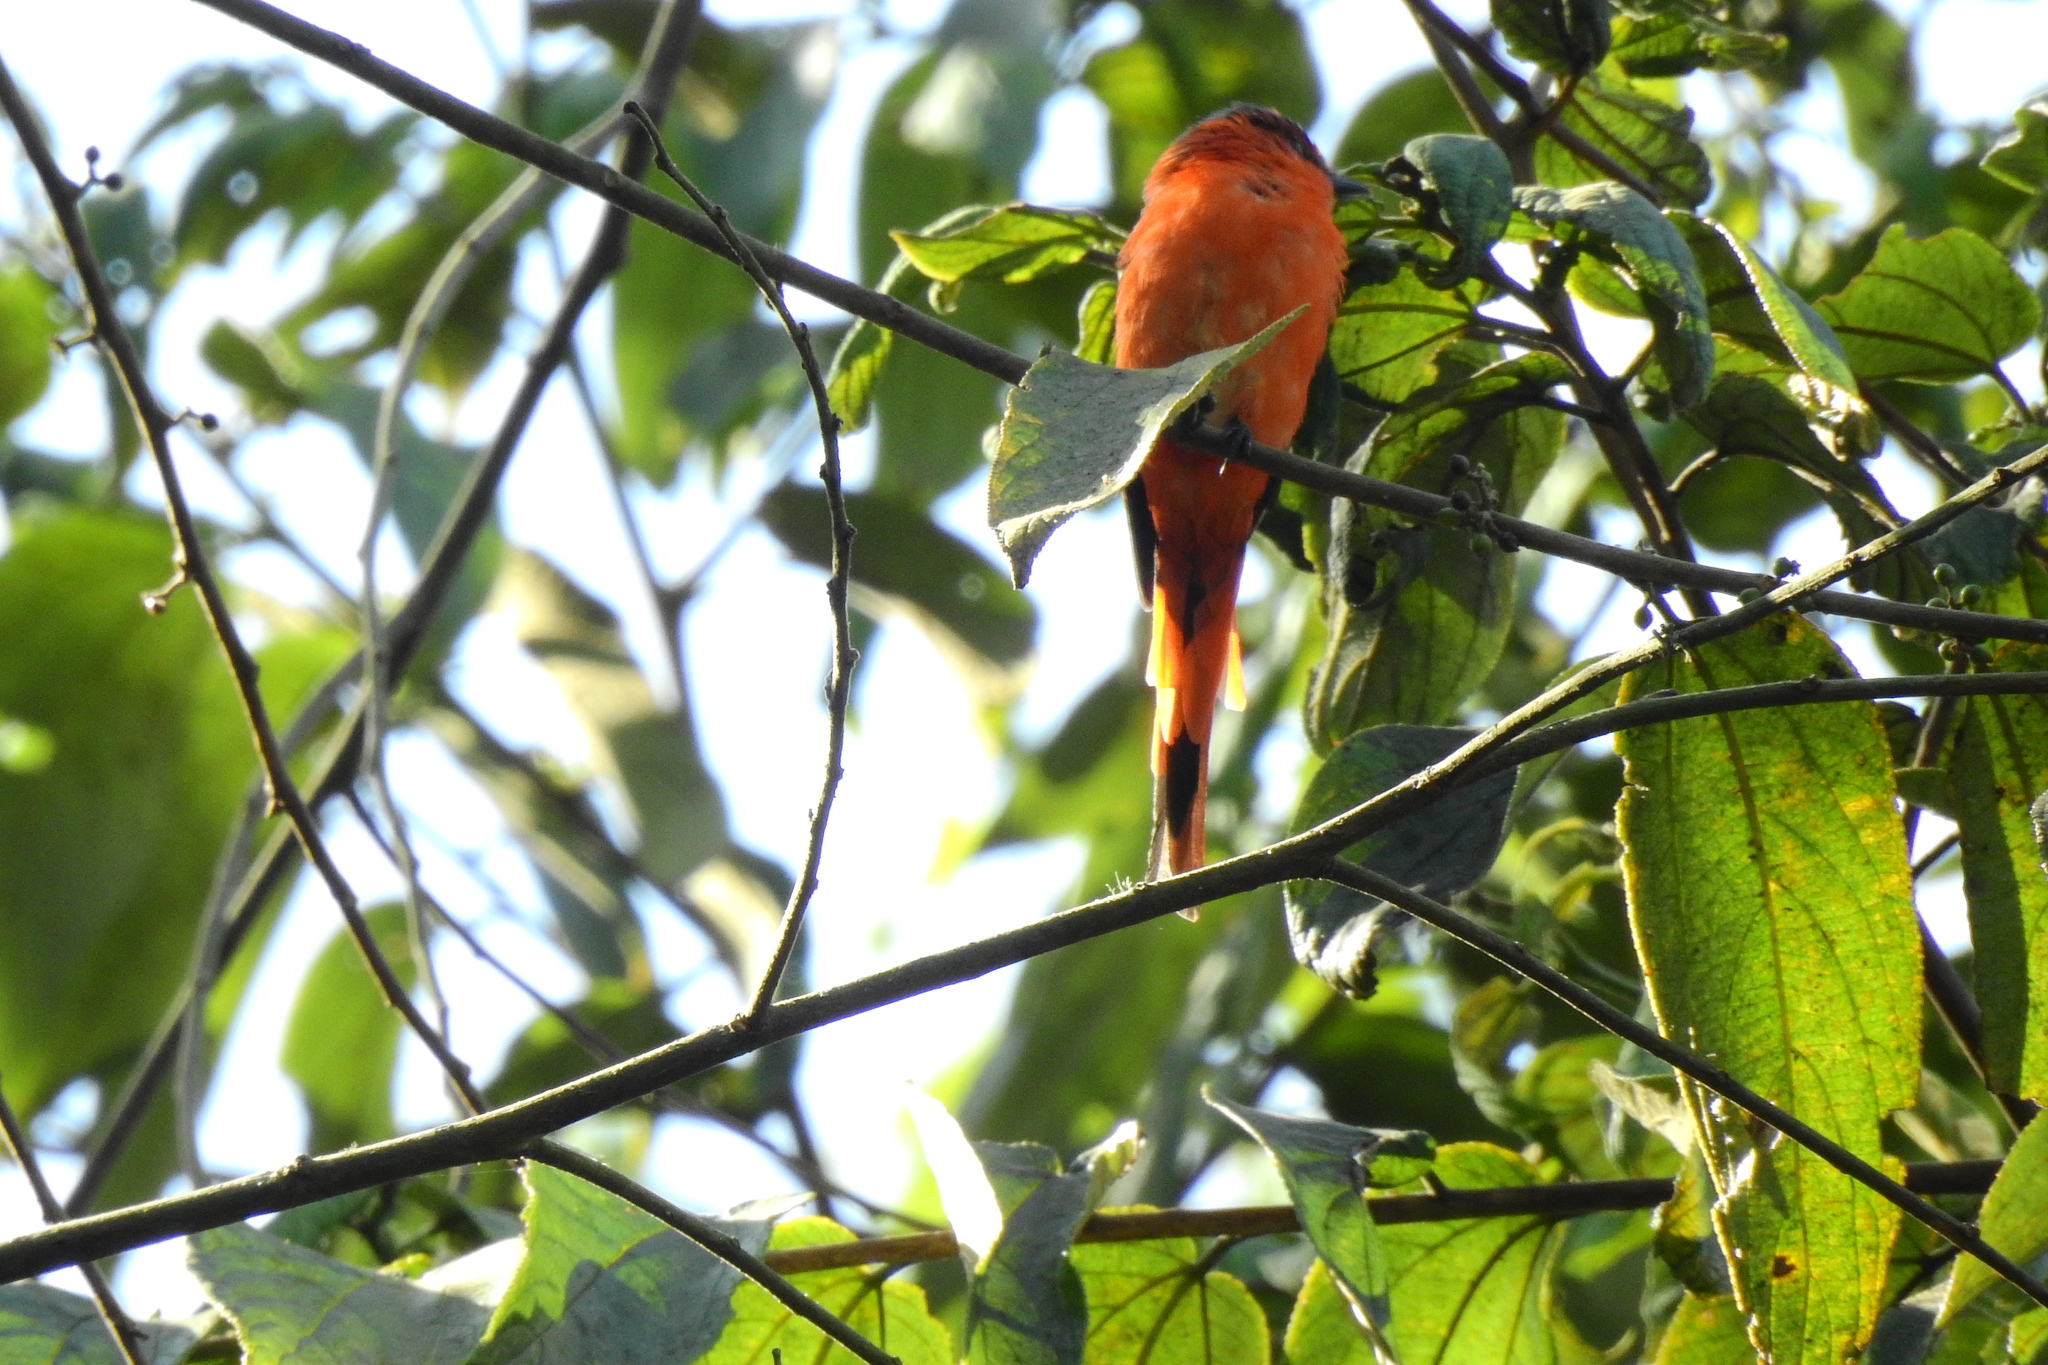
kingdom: Animalia
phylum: Chordata
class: Aves
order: Passeriformes
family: Campephagidae
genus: Pericrocotus
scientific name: Pericrocotus miniatus
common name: Sunda minivet
